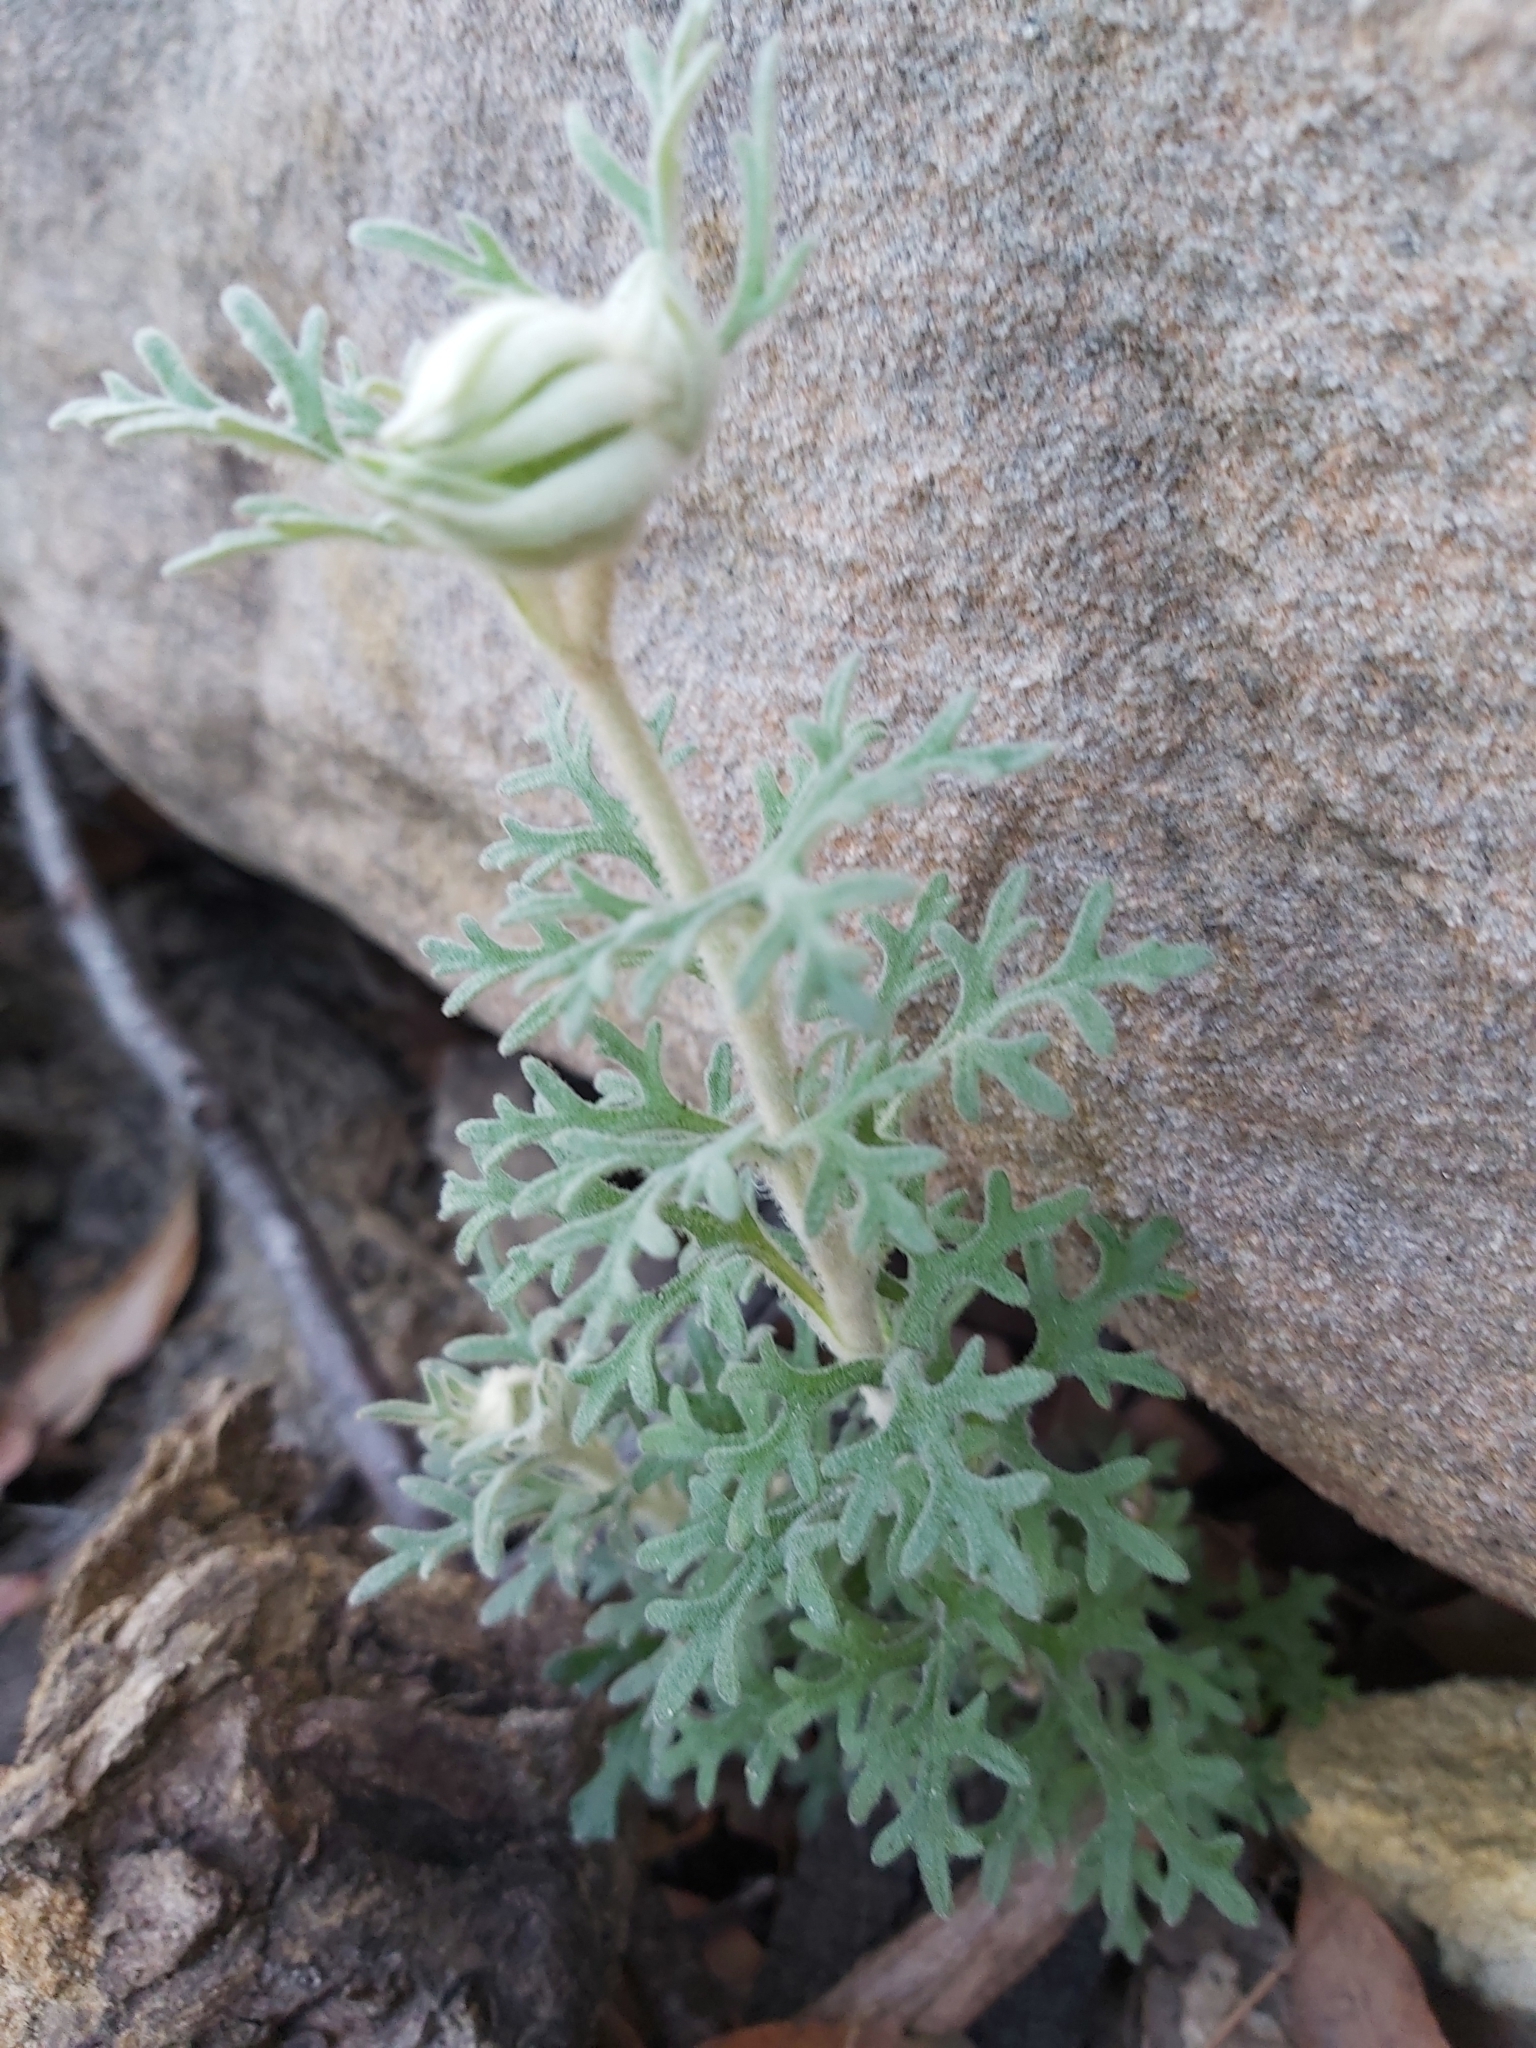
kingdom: Plantae
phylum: Tracheophyta
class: Magnoliopsida
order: Apiales
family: Apiaceae
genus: Actinotus
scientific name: Actinotus helianthi
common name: Flannel-flower
